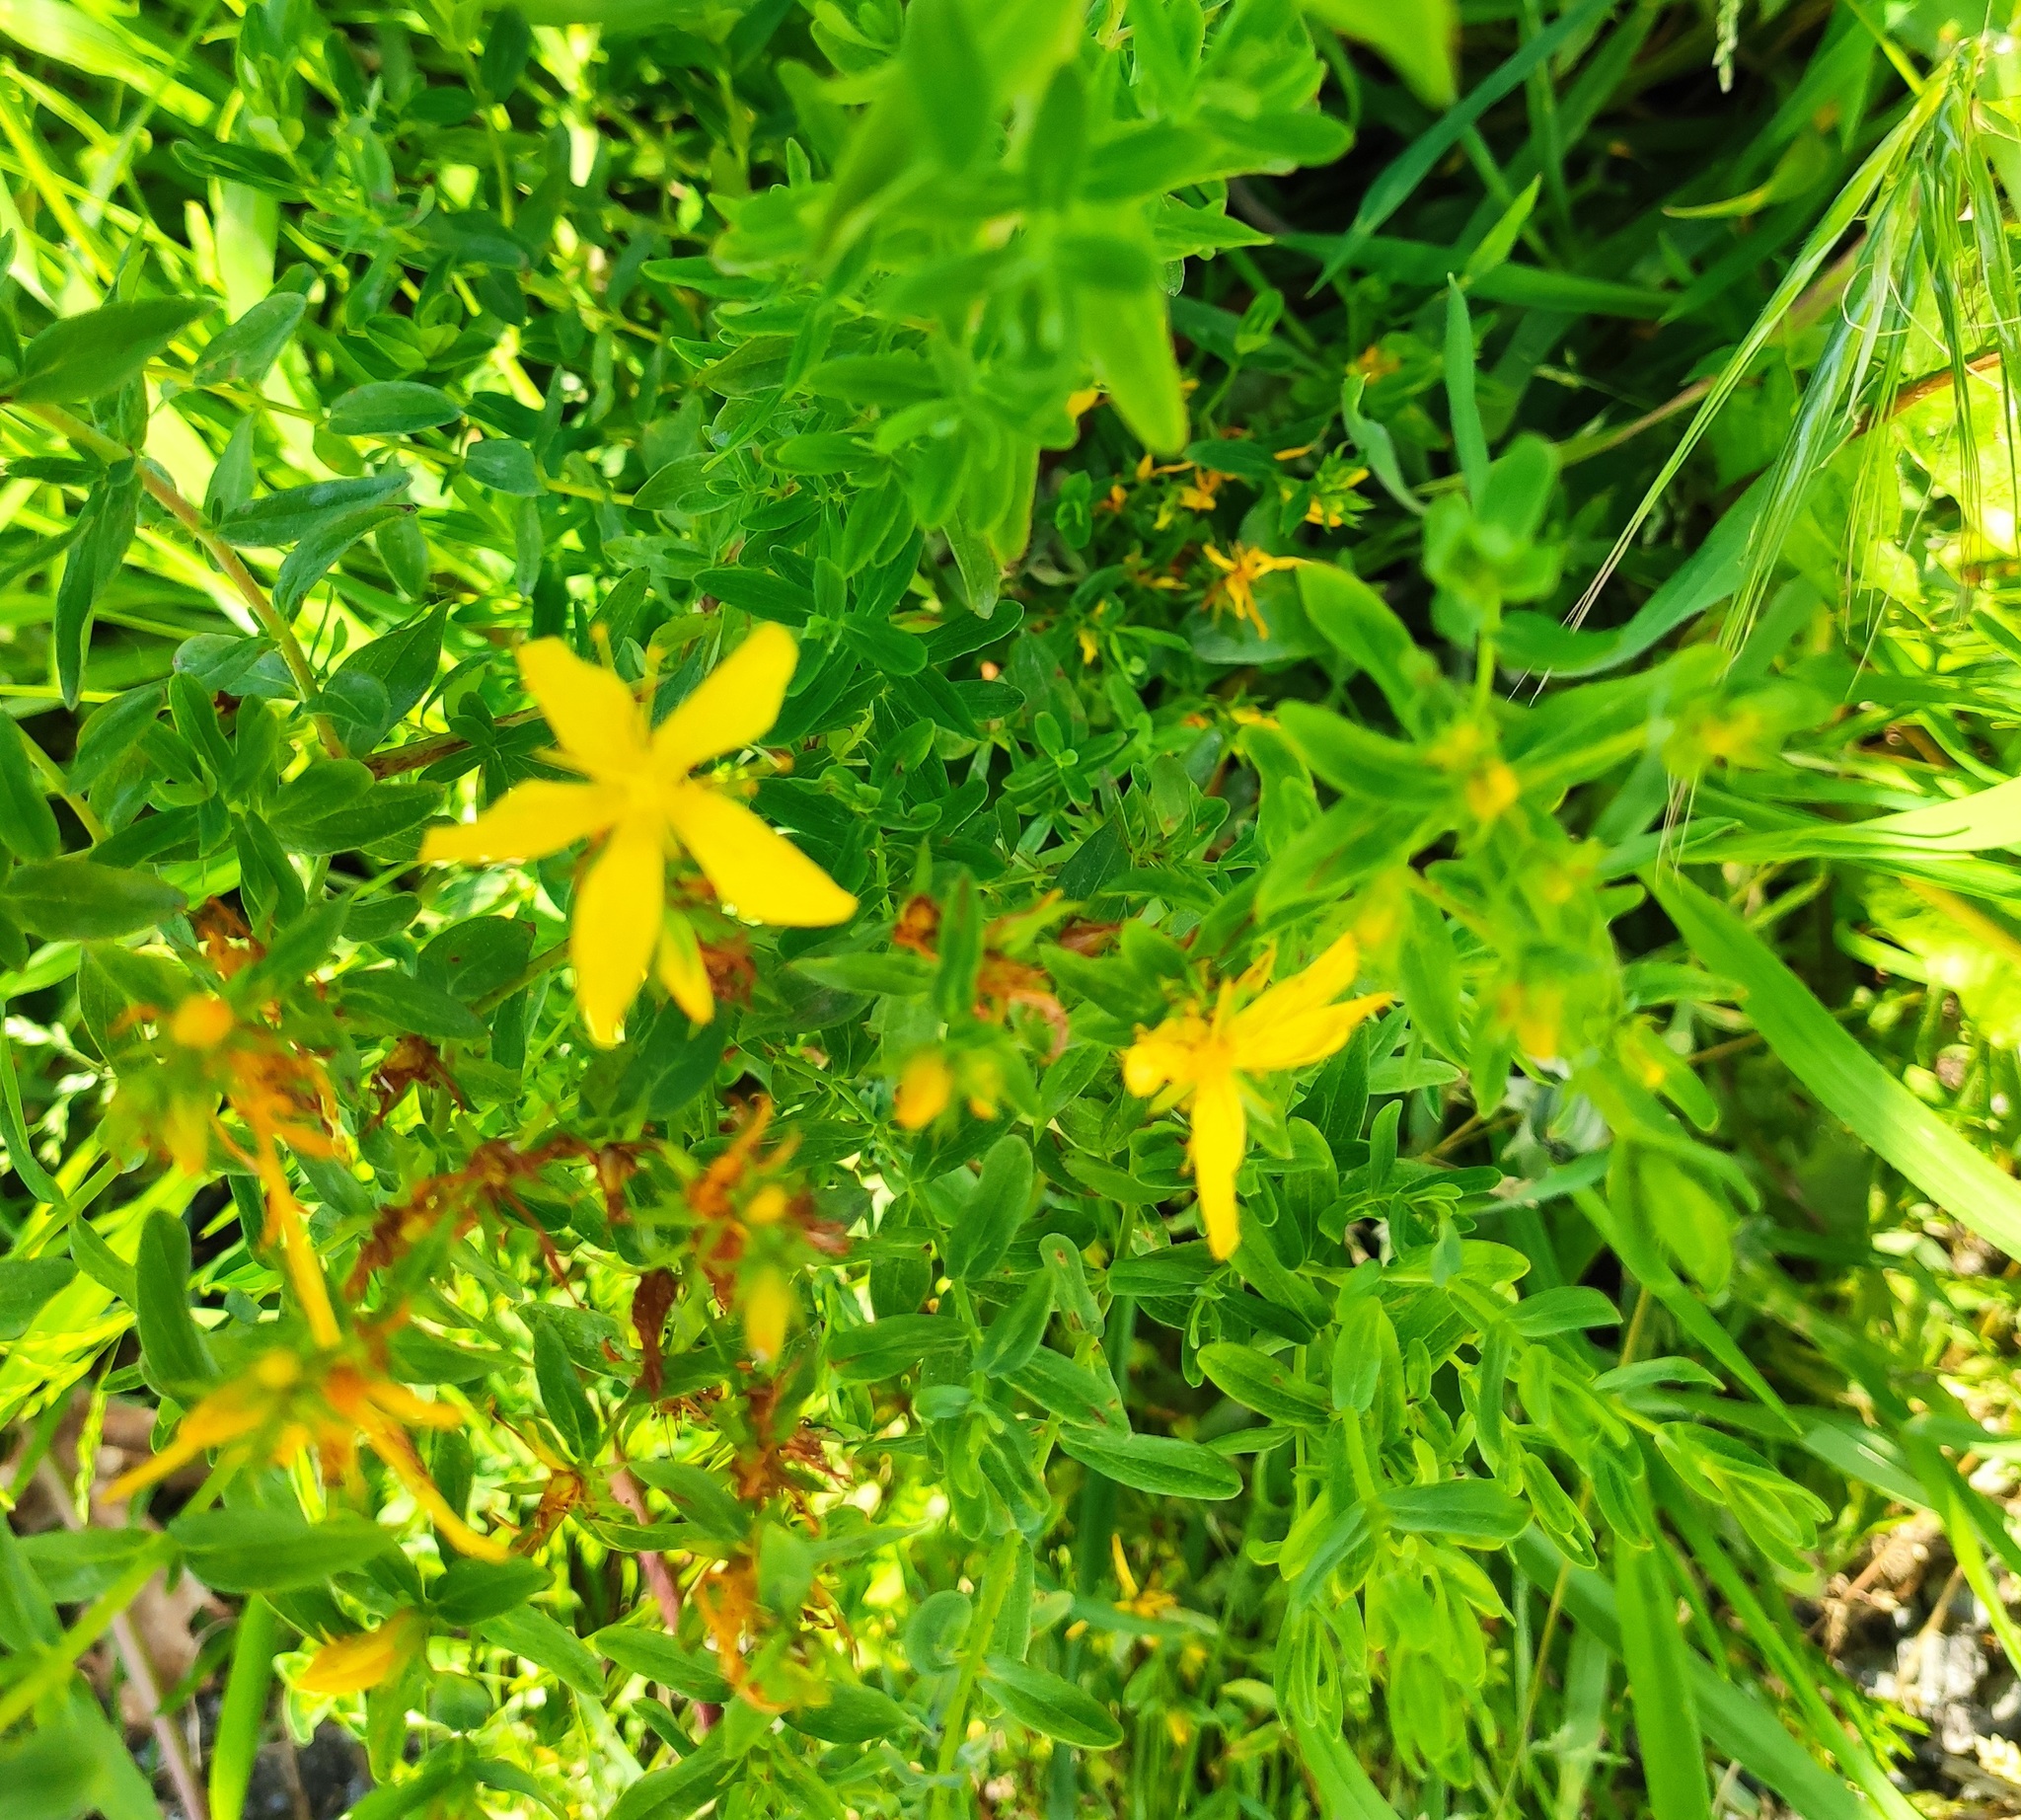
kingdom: Plantae
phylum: Tracheophyta
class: Magnoliopsida
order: Malpighiales
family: Hypericaceae
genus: Hypericum
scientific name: Hypericum perforatum
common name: Common st. johnswort
